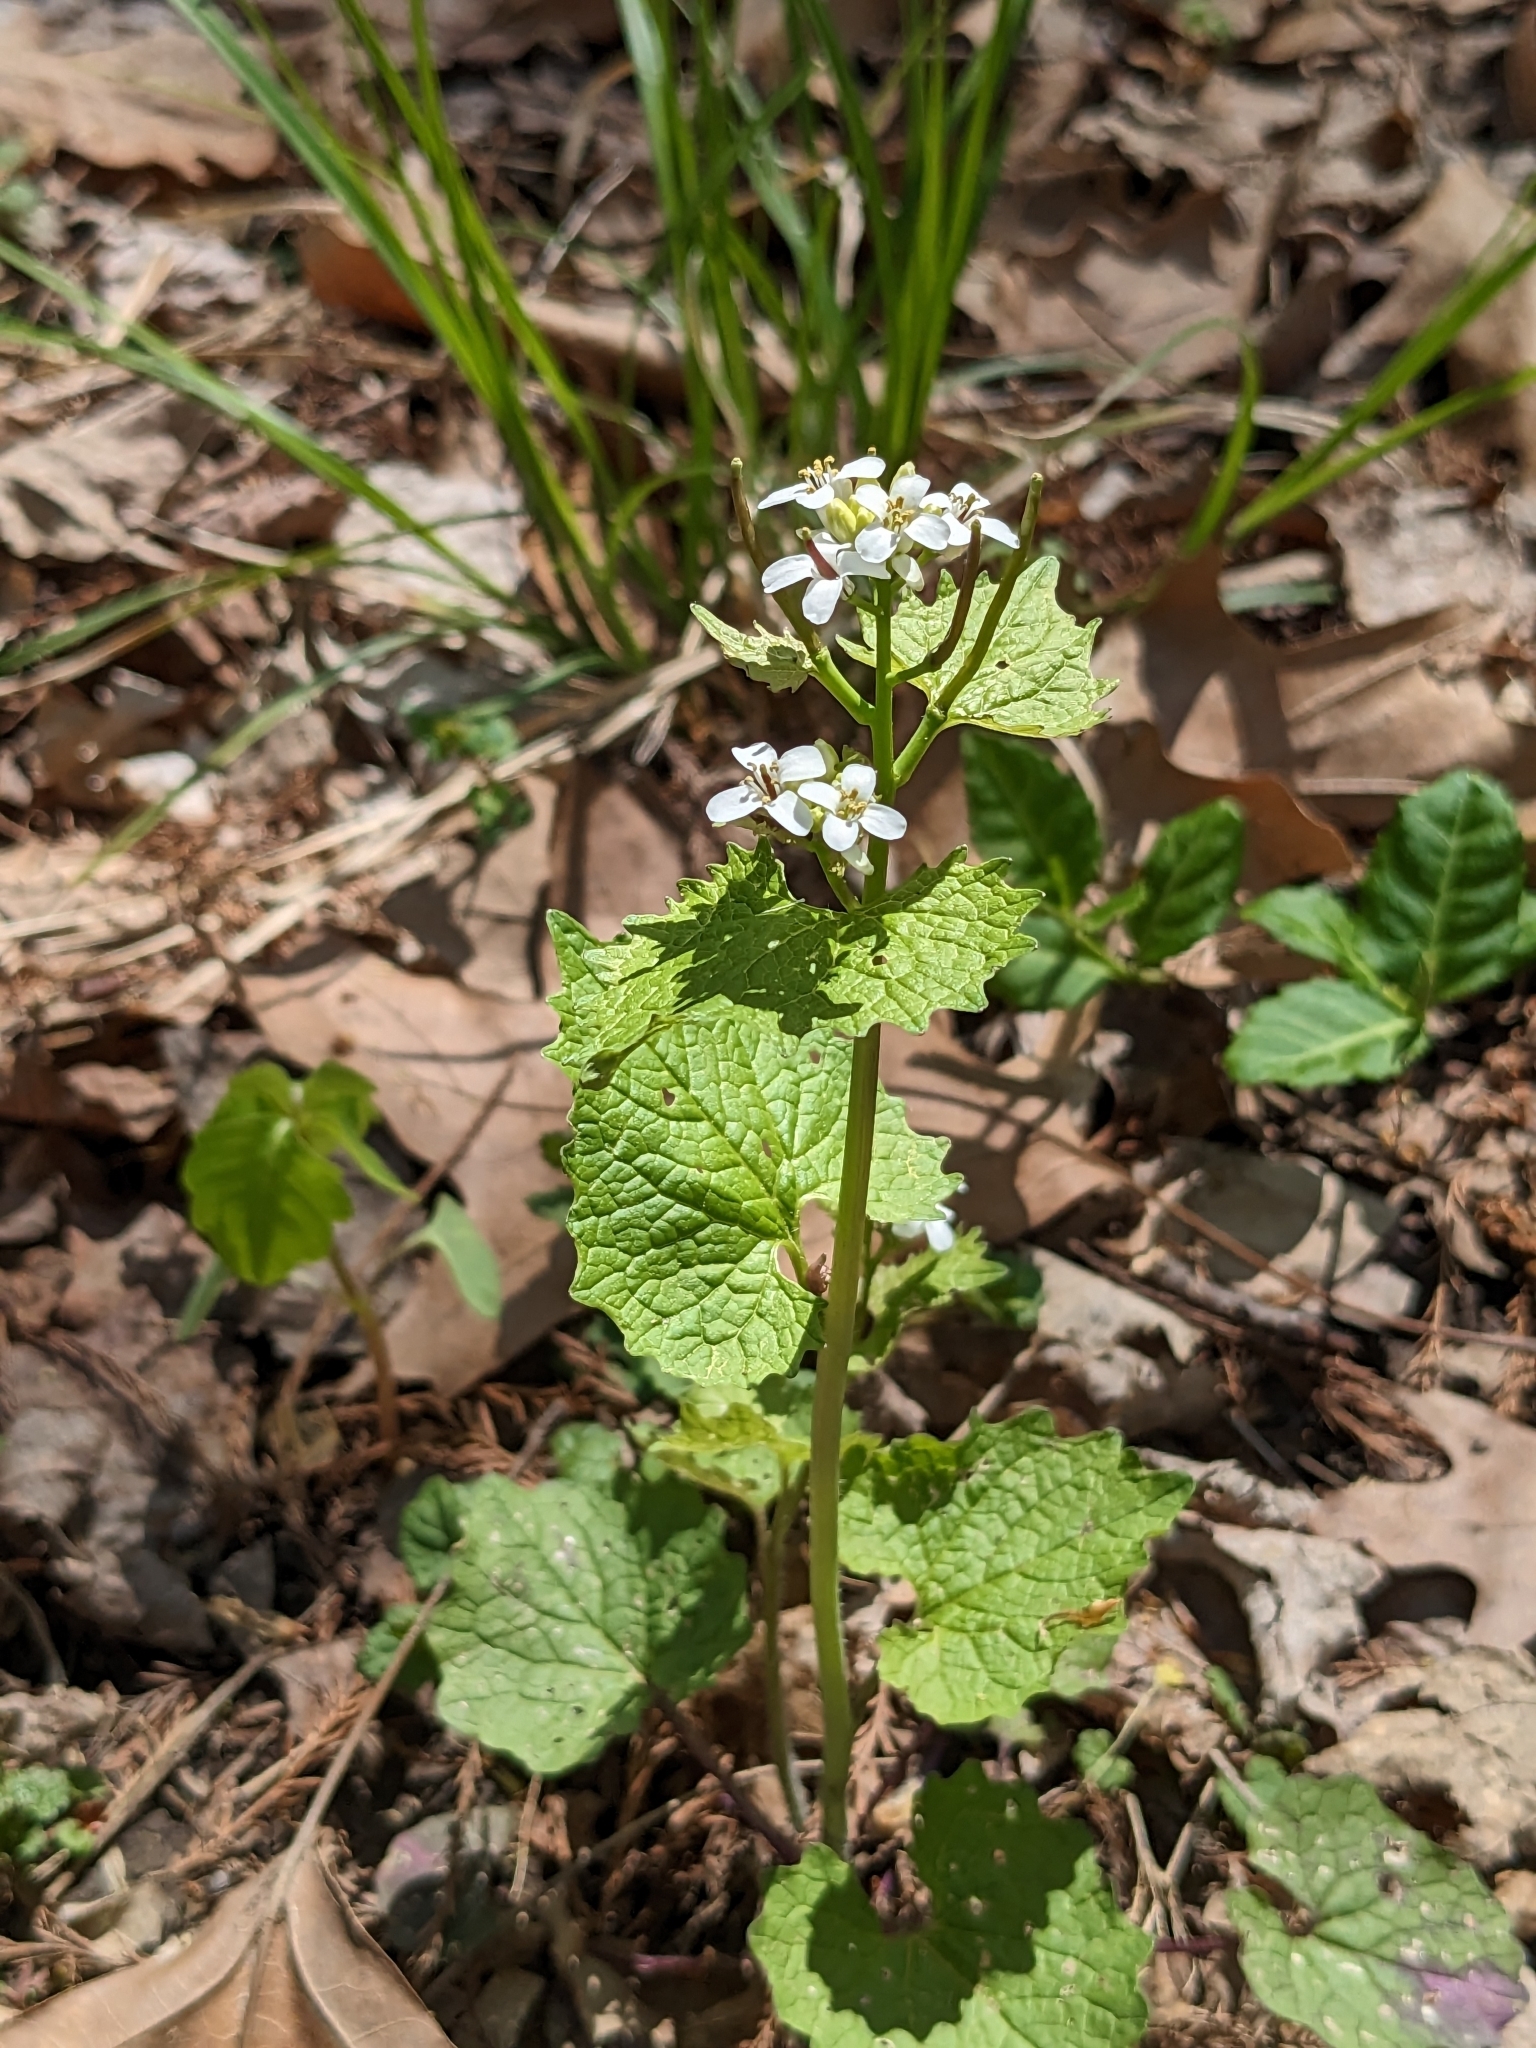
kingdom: Plantae
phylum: Tracheophyta
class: Magnoliopsida
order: Brassicales
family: Brassicaceae
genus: Alliaria
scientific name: Alliaria petiolata
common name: Garlic mustard
